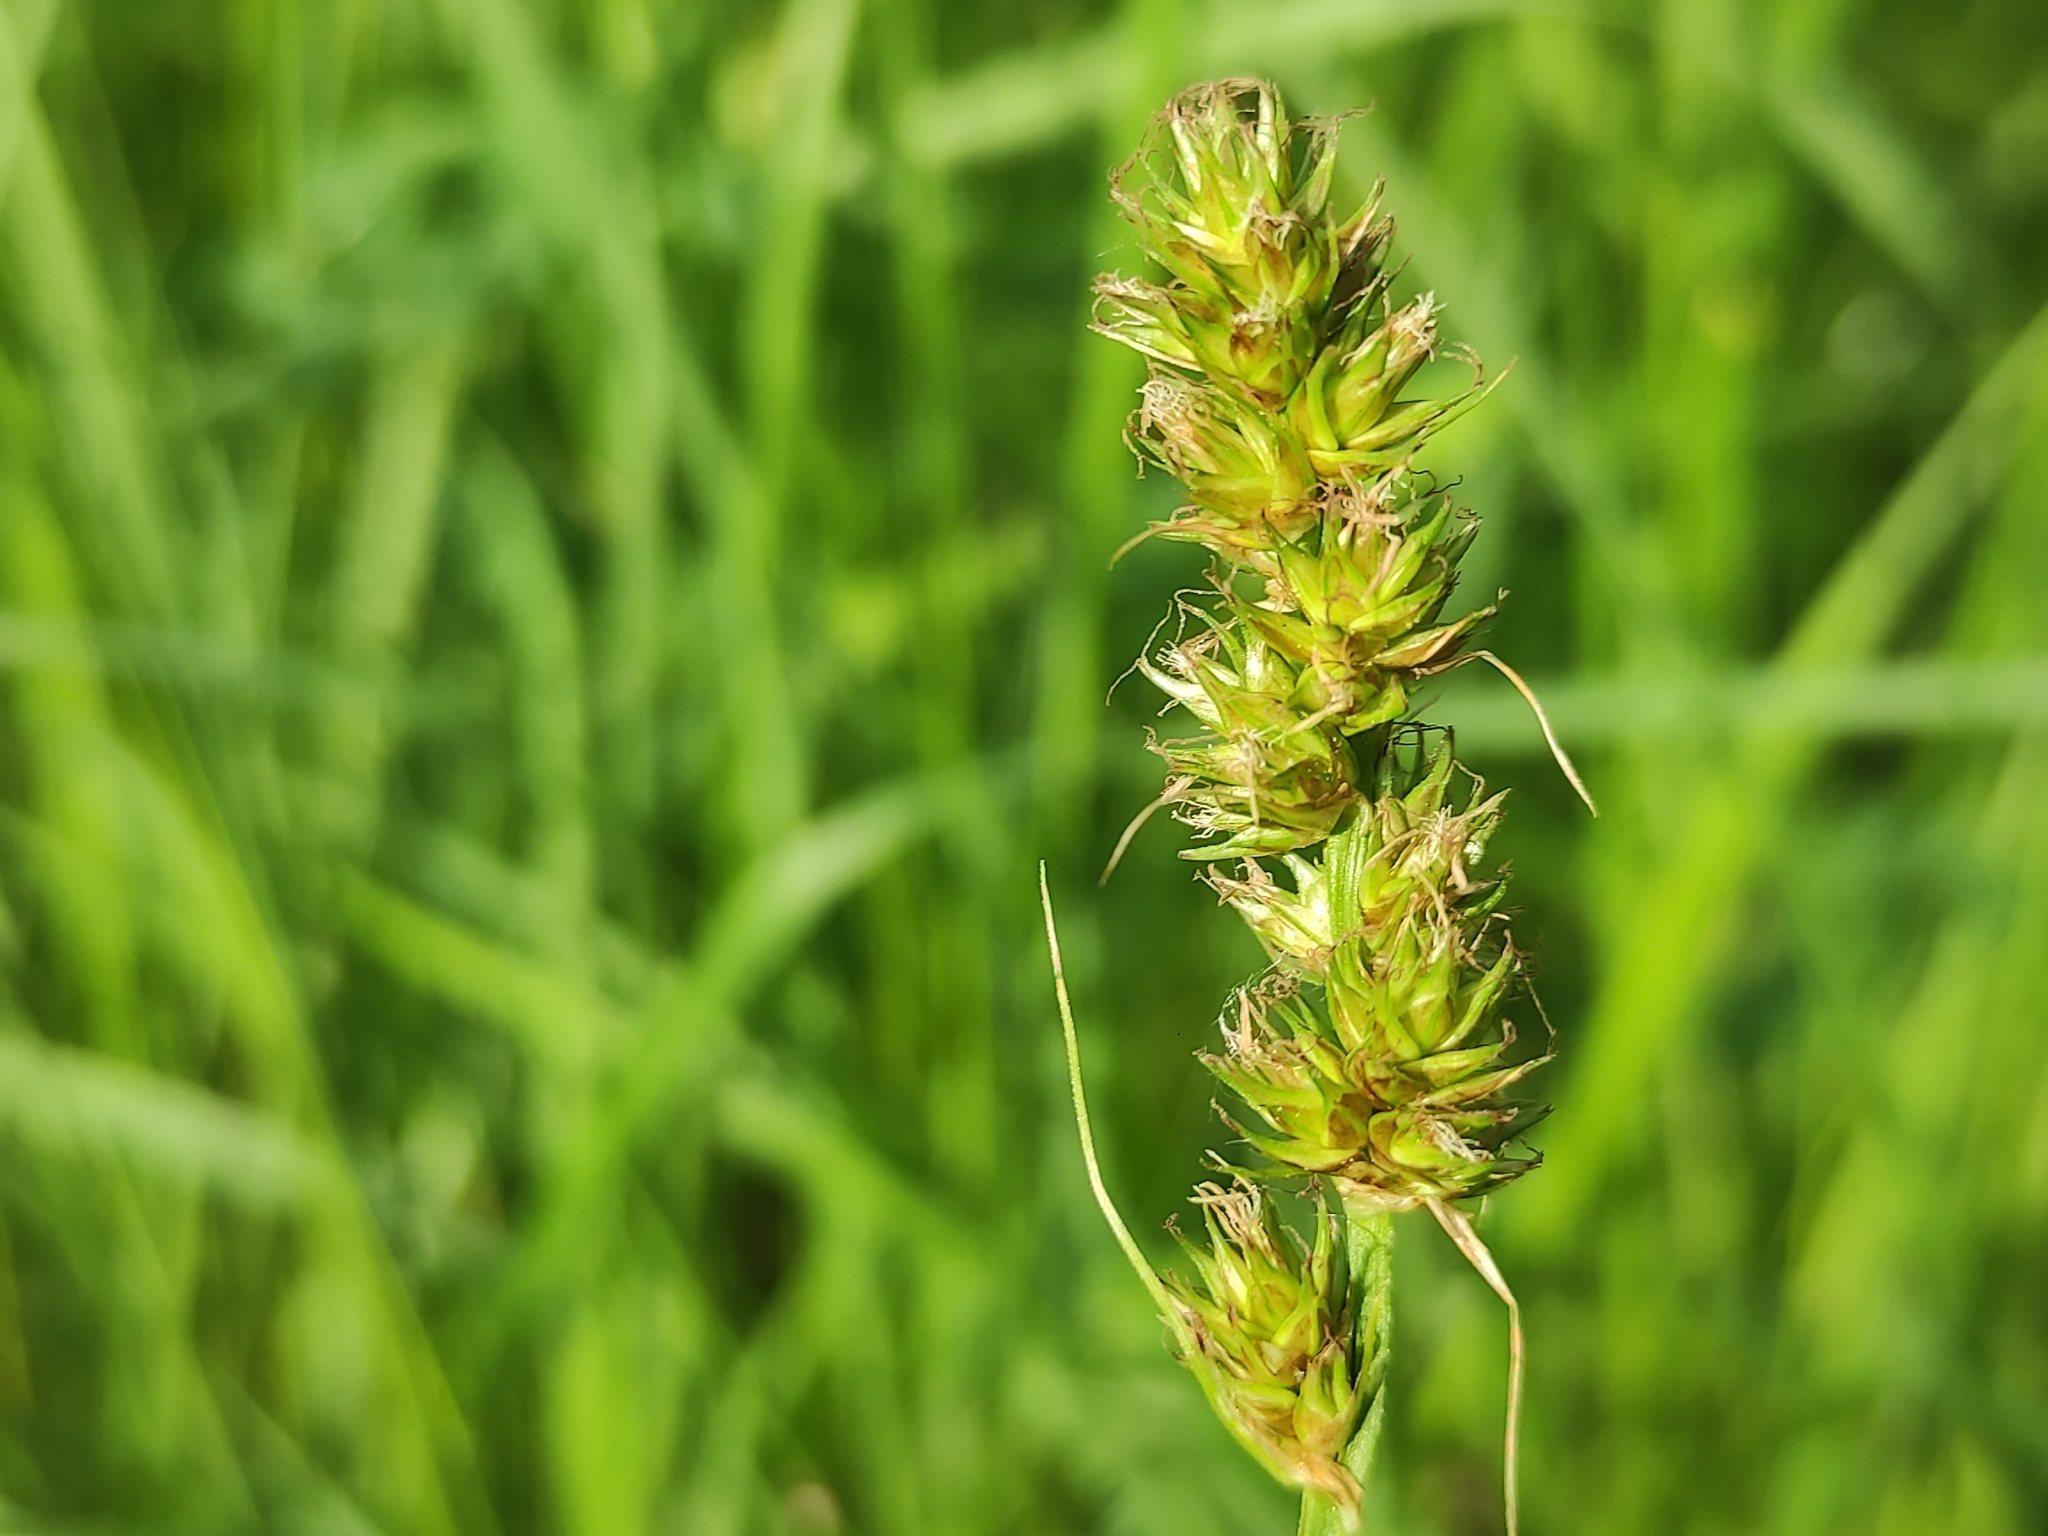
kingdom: Plantae
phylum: Tracheophyta
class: Liliopsida
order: Poales
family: Cyperaceae
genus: Carex
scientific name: Carex otrubae
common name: False fox-sedge
